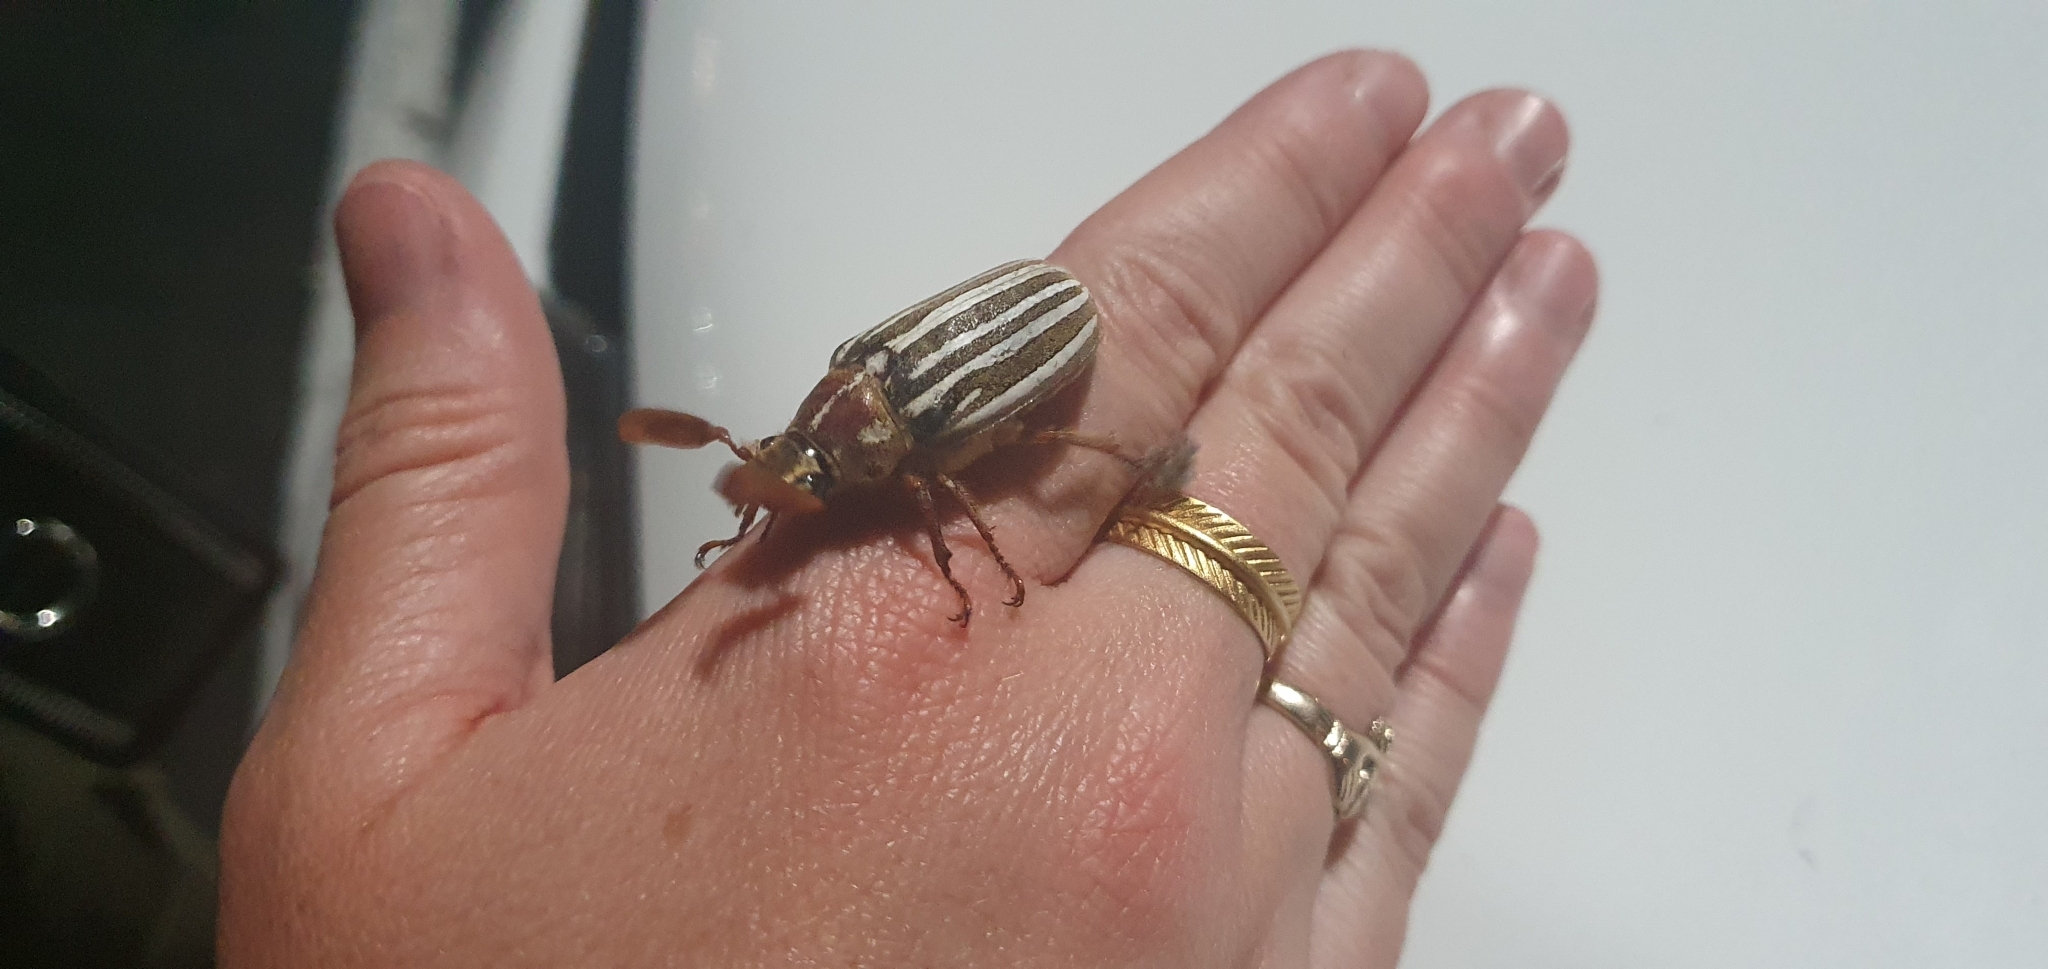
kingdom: Animalia
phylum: Arthropoda
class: Insecta
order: Coleoptera
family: Scarabaeidae
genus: Polyphylla
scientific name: Polyphylla decemlineata
